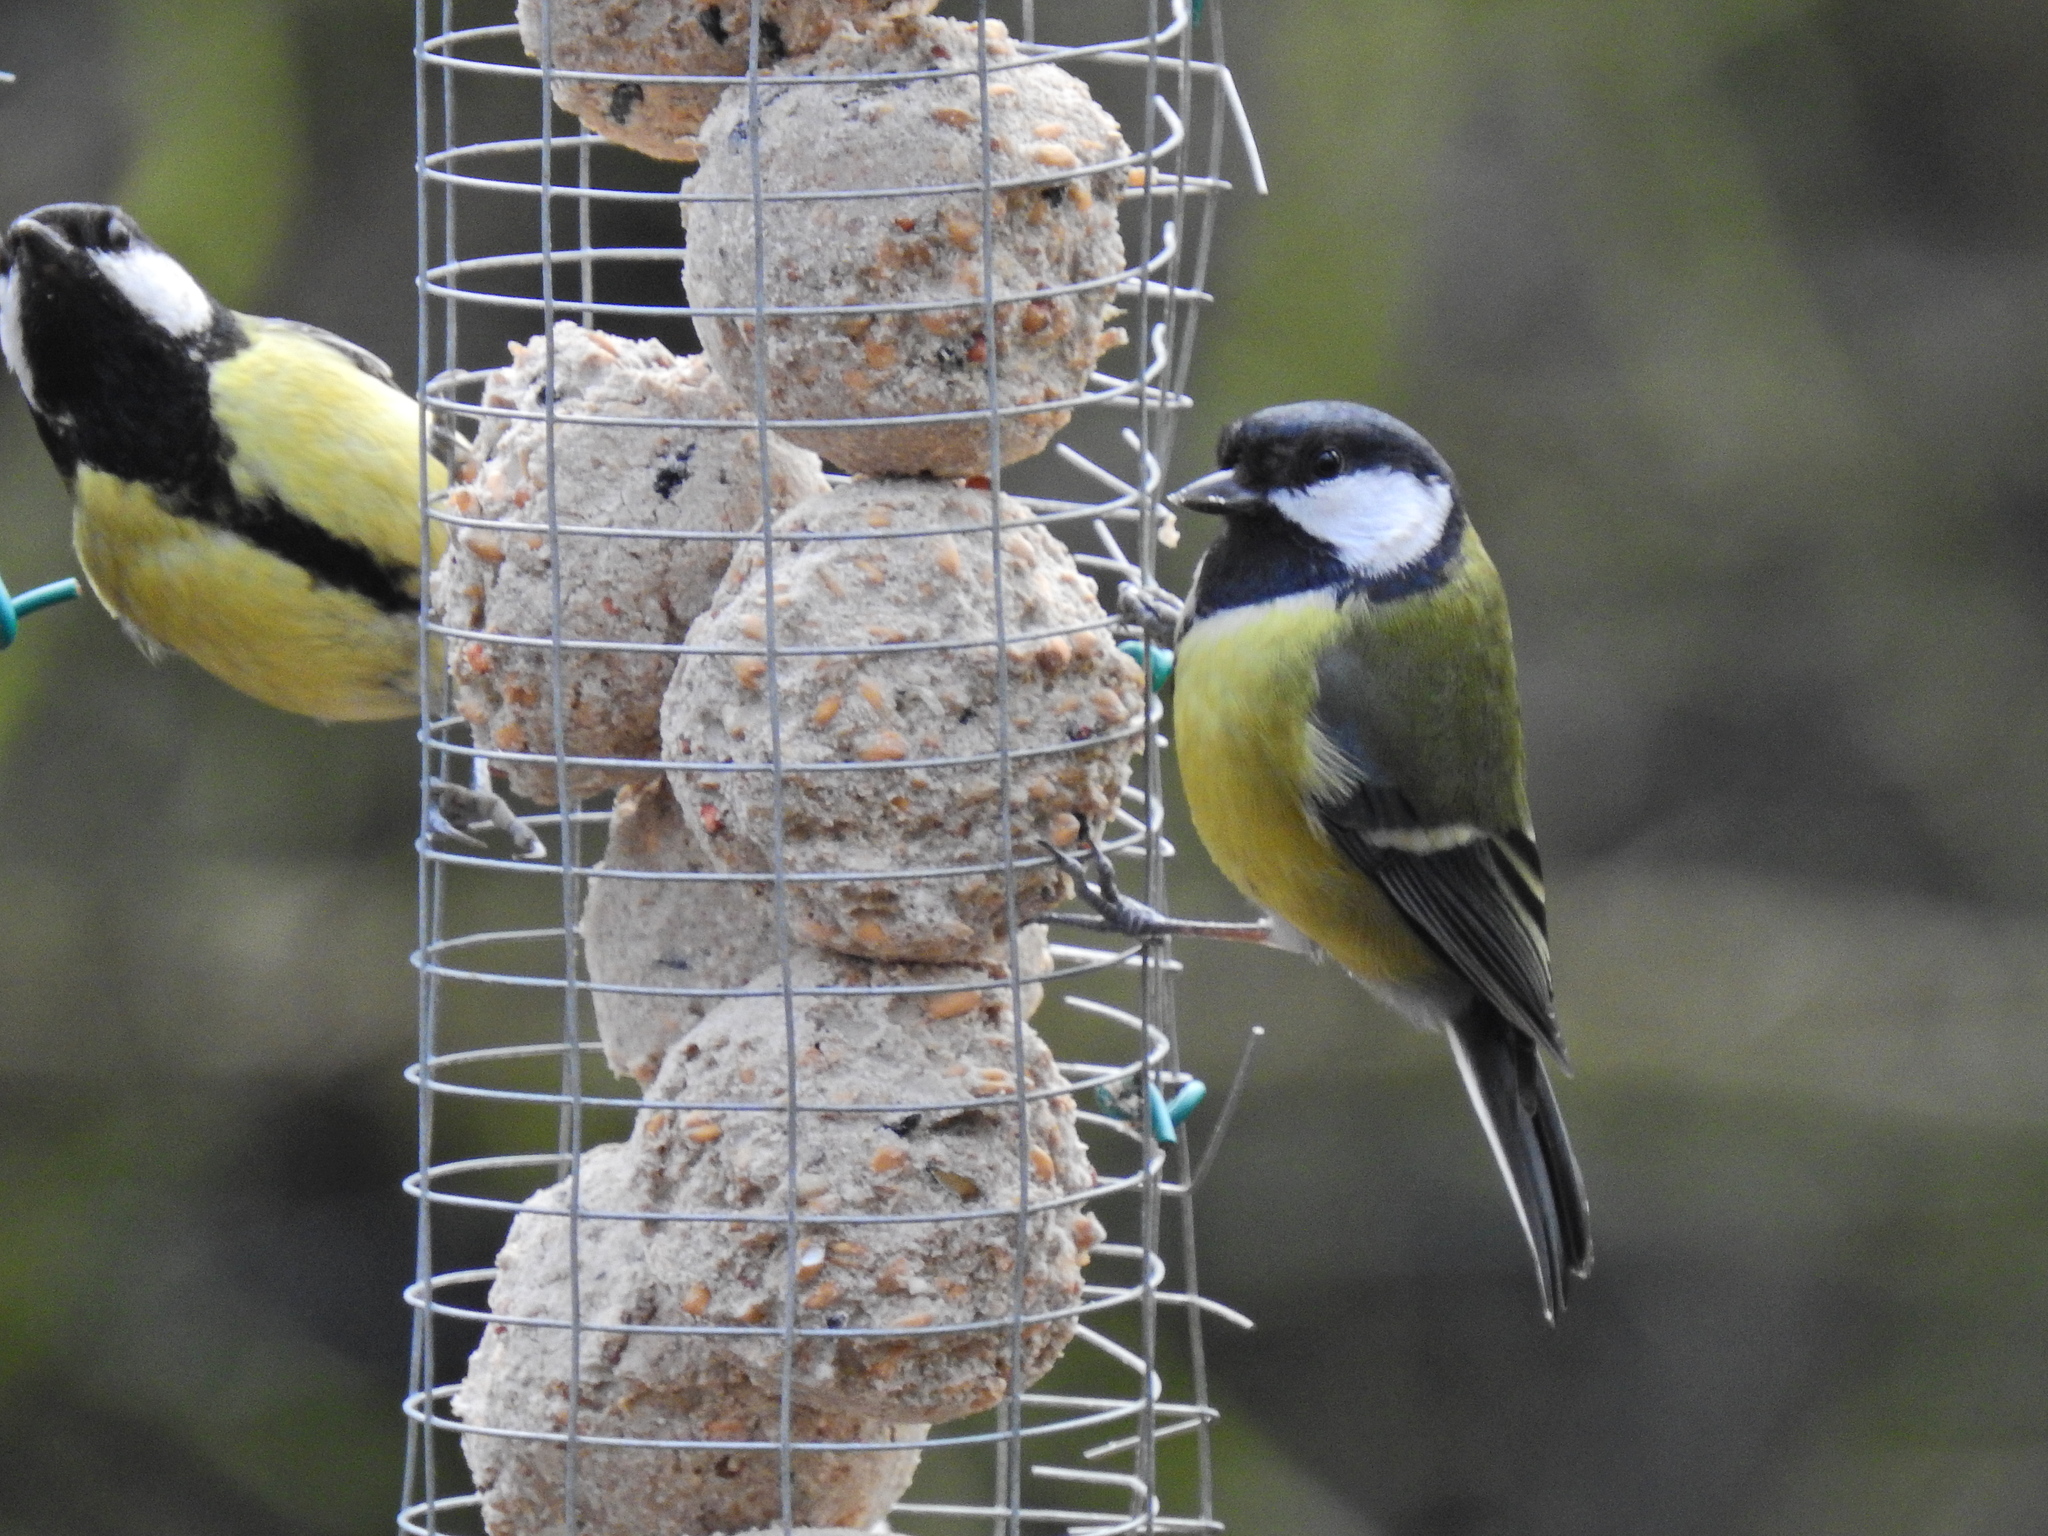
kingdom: Animalia
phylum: Chordata
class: Aves
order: Passeriformes
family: Paridae
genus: Parus
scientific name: Parus major
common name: Great tit
